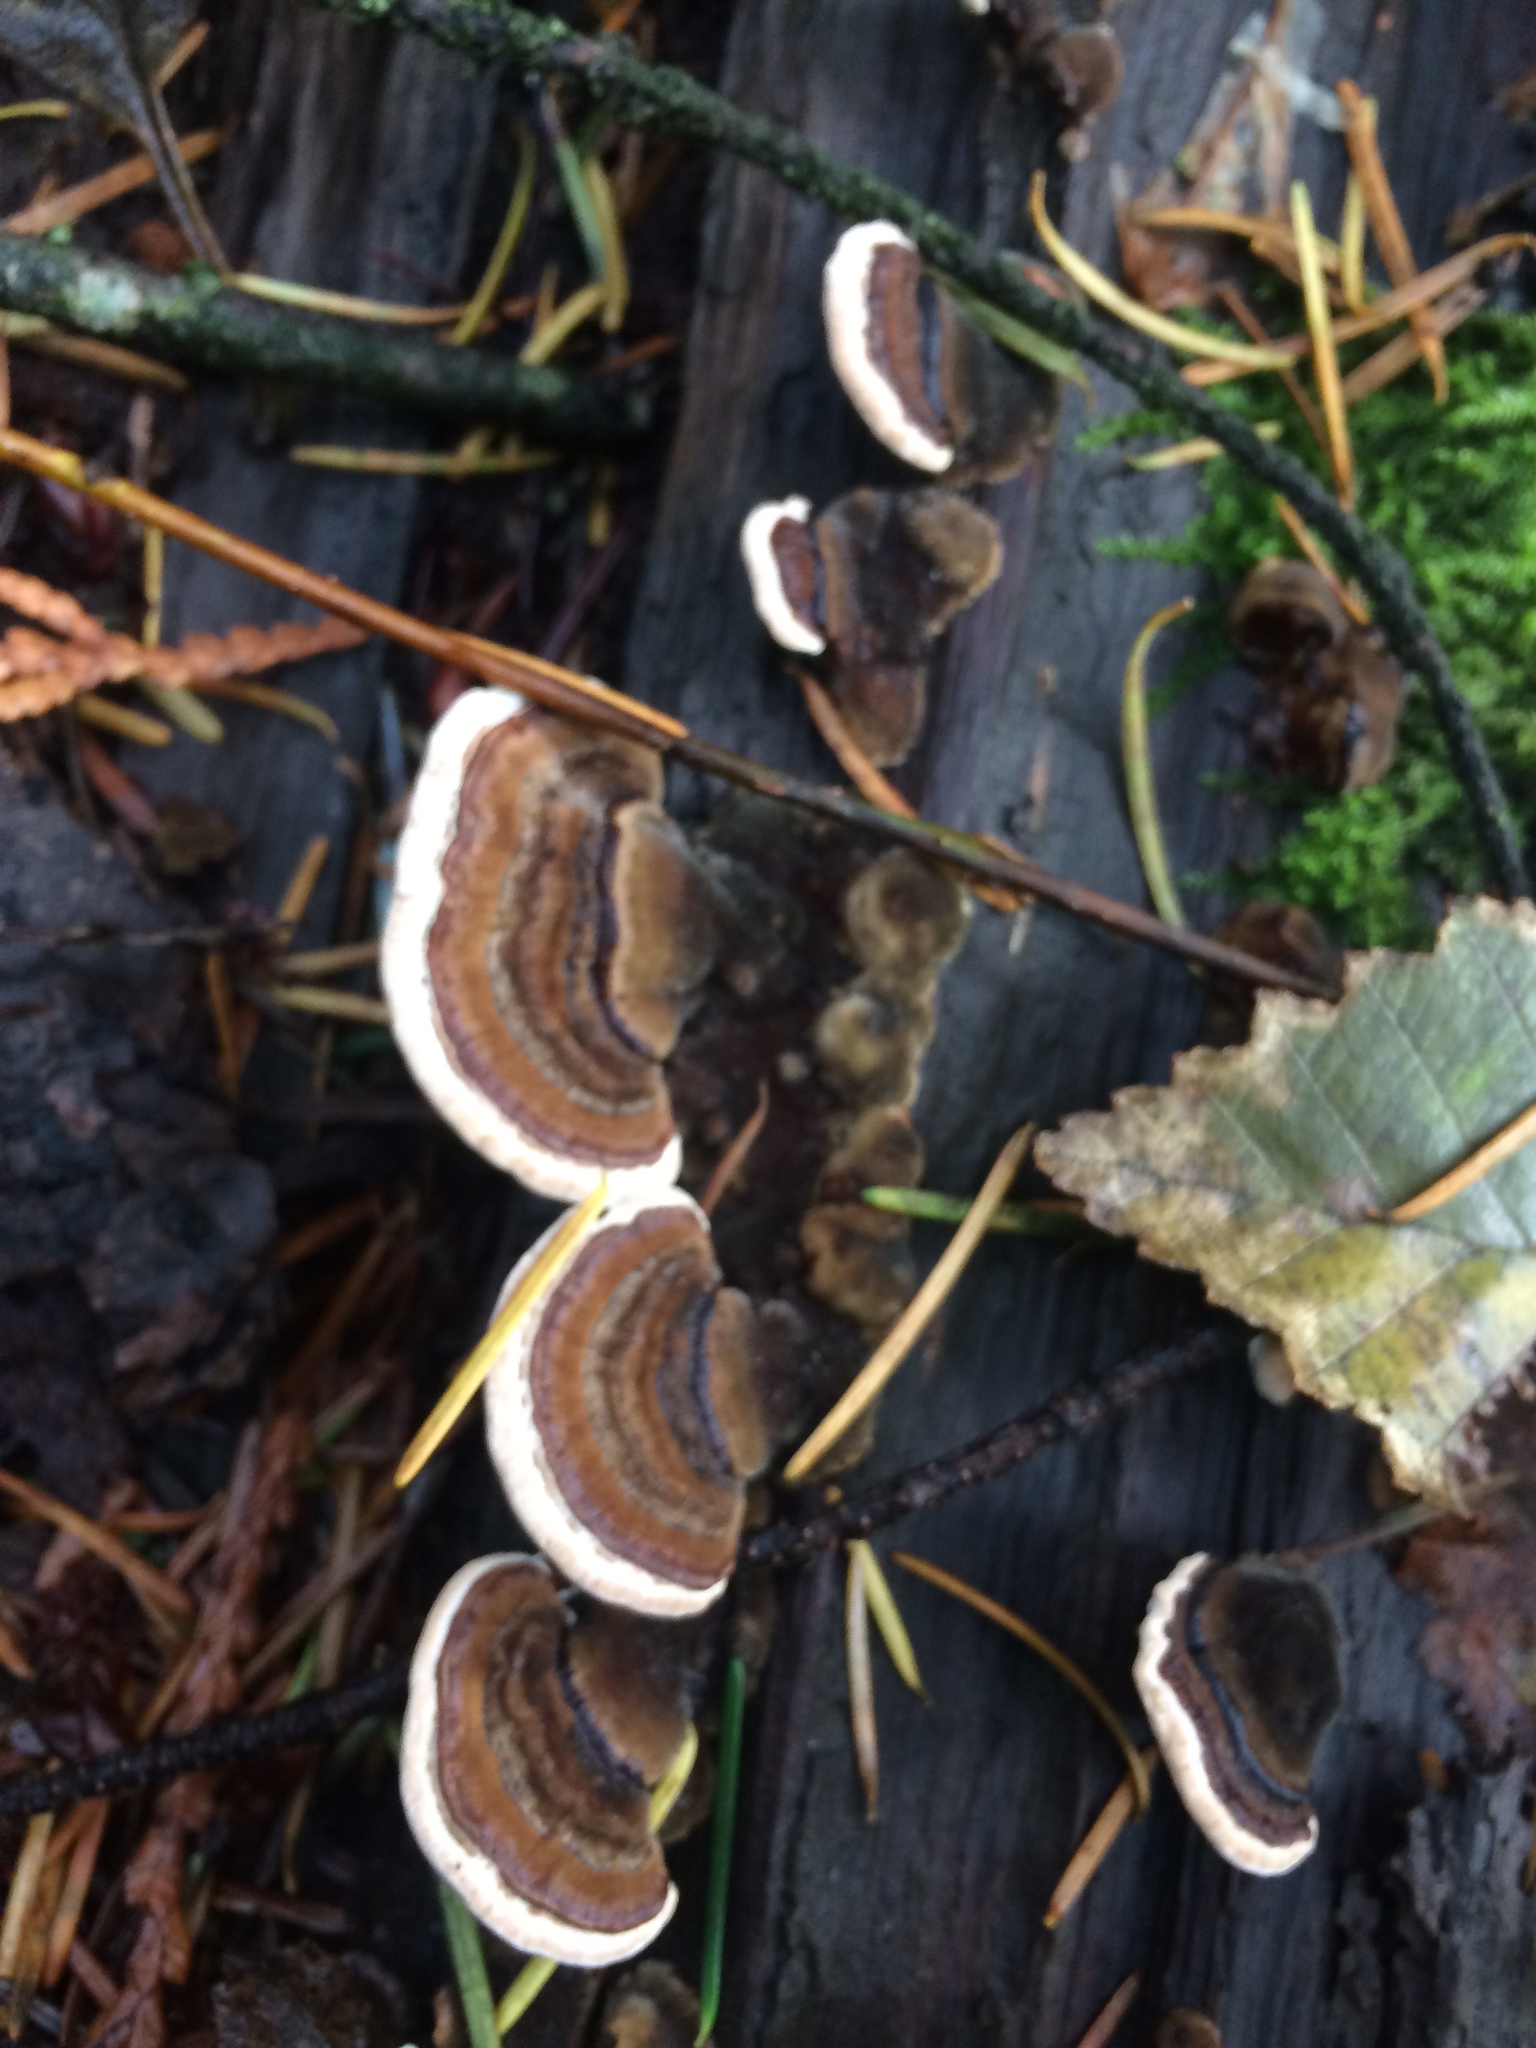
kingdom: Fungi
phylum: Basidiomycota
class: Agaricomycetes
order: Polyporales
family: Polyporaceae
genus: Trametes
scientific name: Trametes versicolor
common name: Turkeytail
